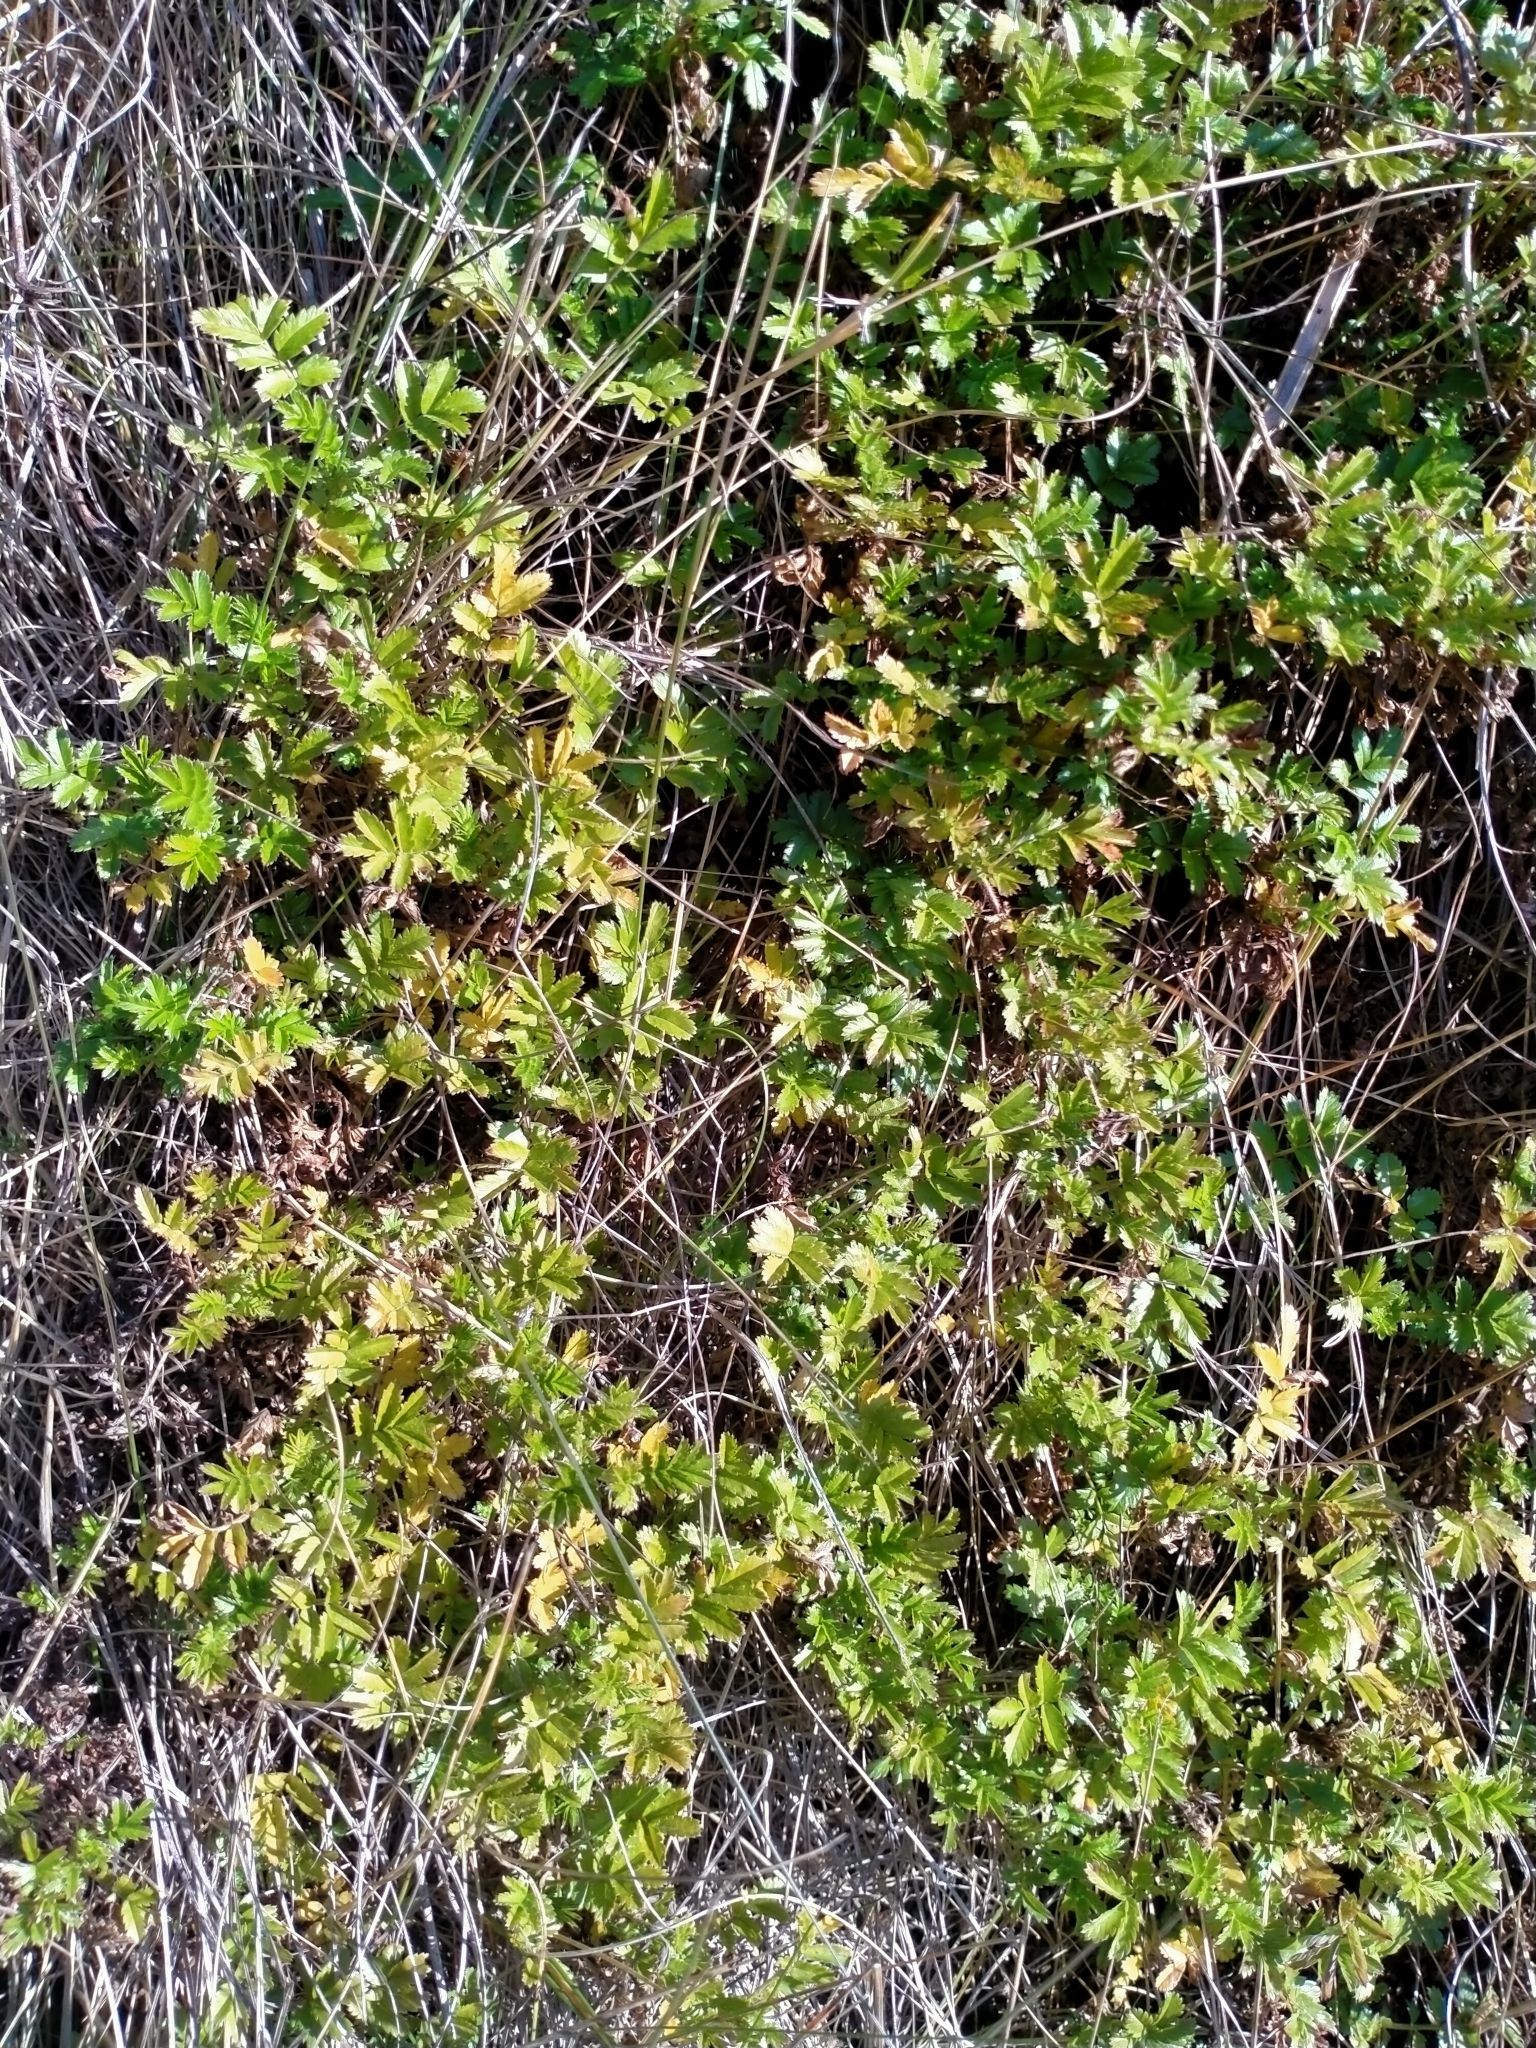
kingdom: Plantae
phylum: Tracheophyta
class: Magnoliopsida
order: Rosales
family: Rosaceae
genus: Acaena
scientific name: Acaena novae-zelandiae
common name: Pirri-pirri-bur
